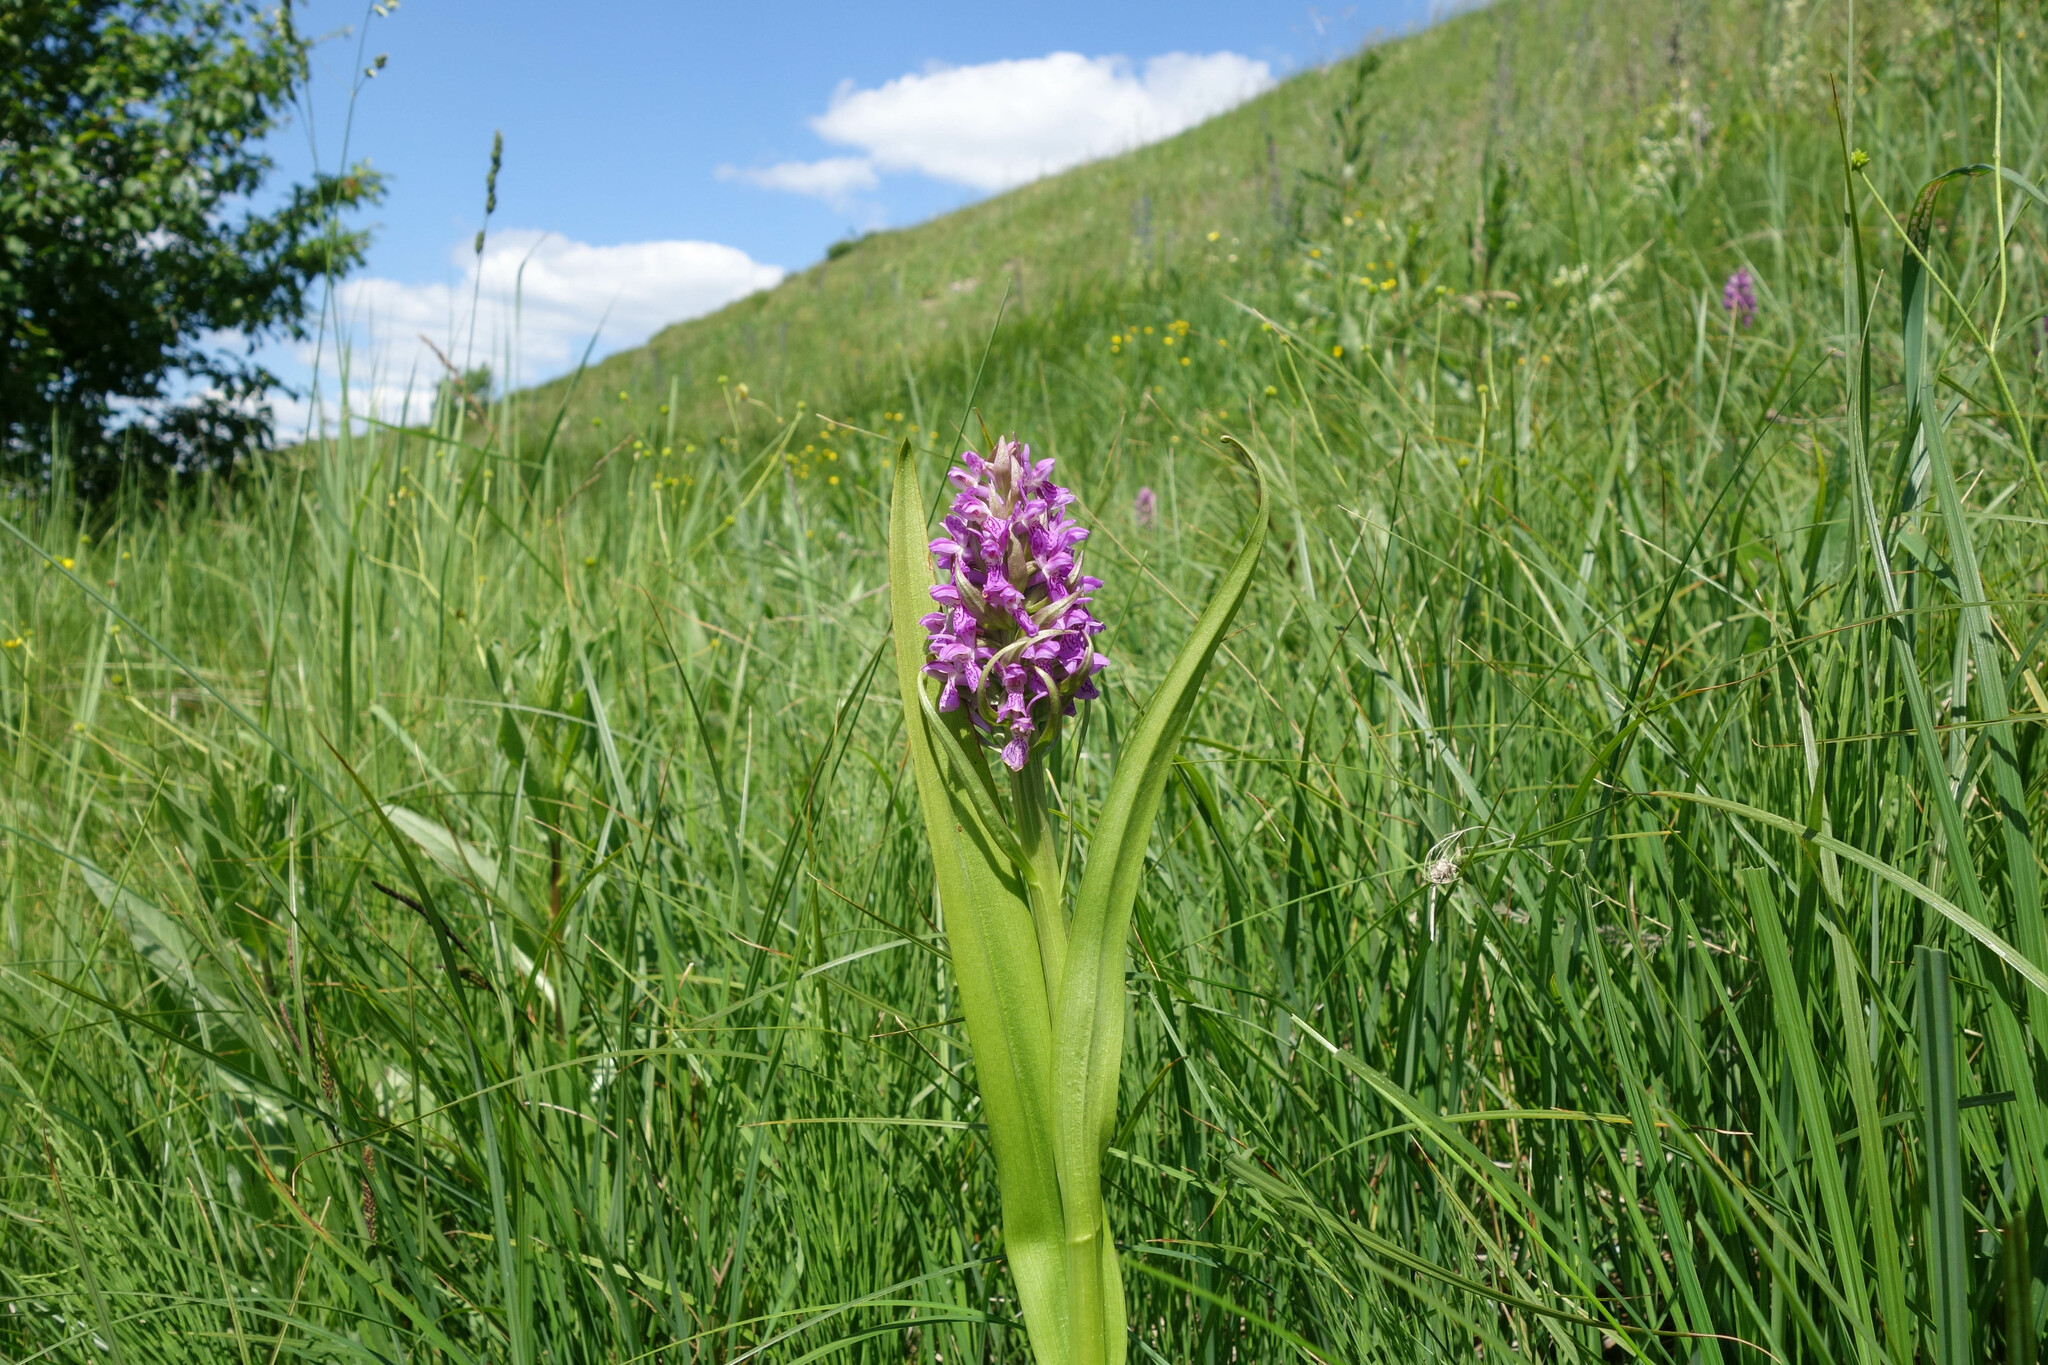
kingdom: Plantae
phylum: Tracheophyta
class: Liliopsida
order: Asparagales
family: Orchidaceae
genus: Dactylorhiza
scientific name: Dactylorhiza incarnata
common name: Early marsh-orchid
